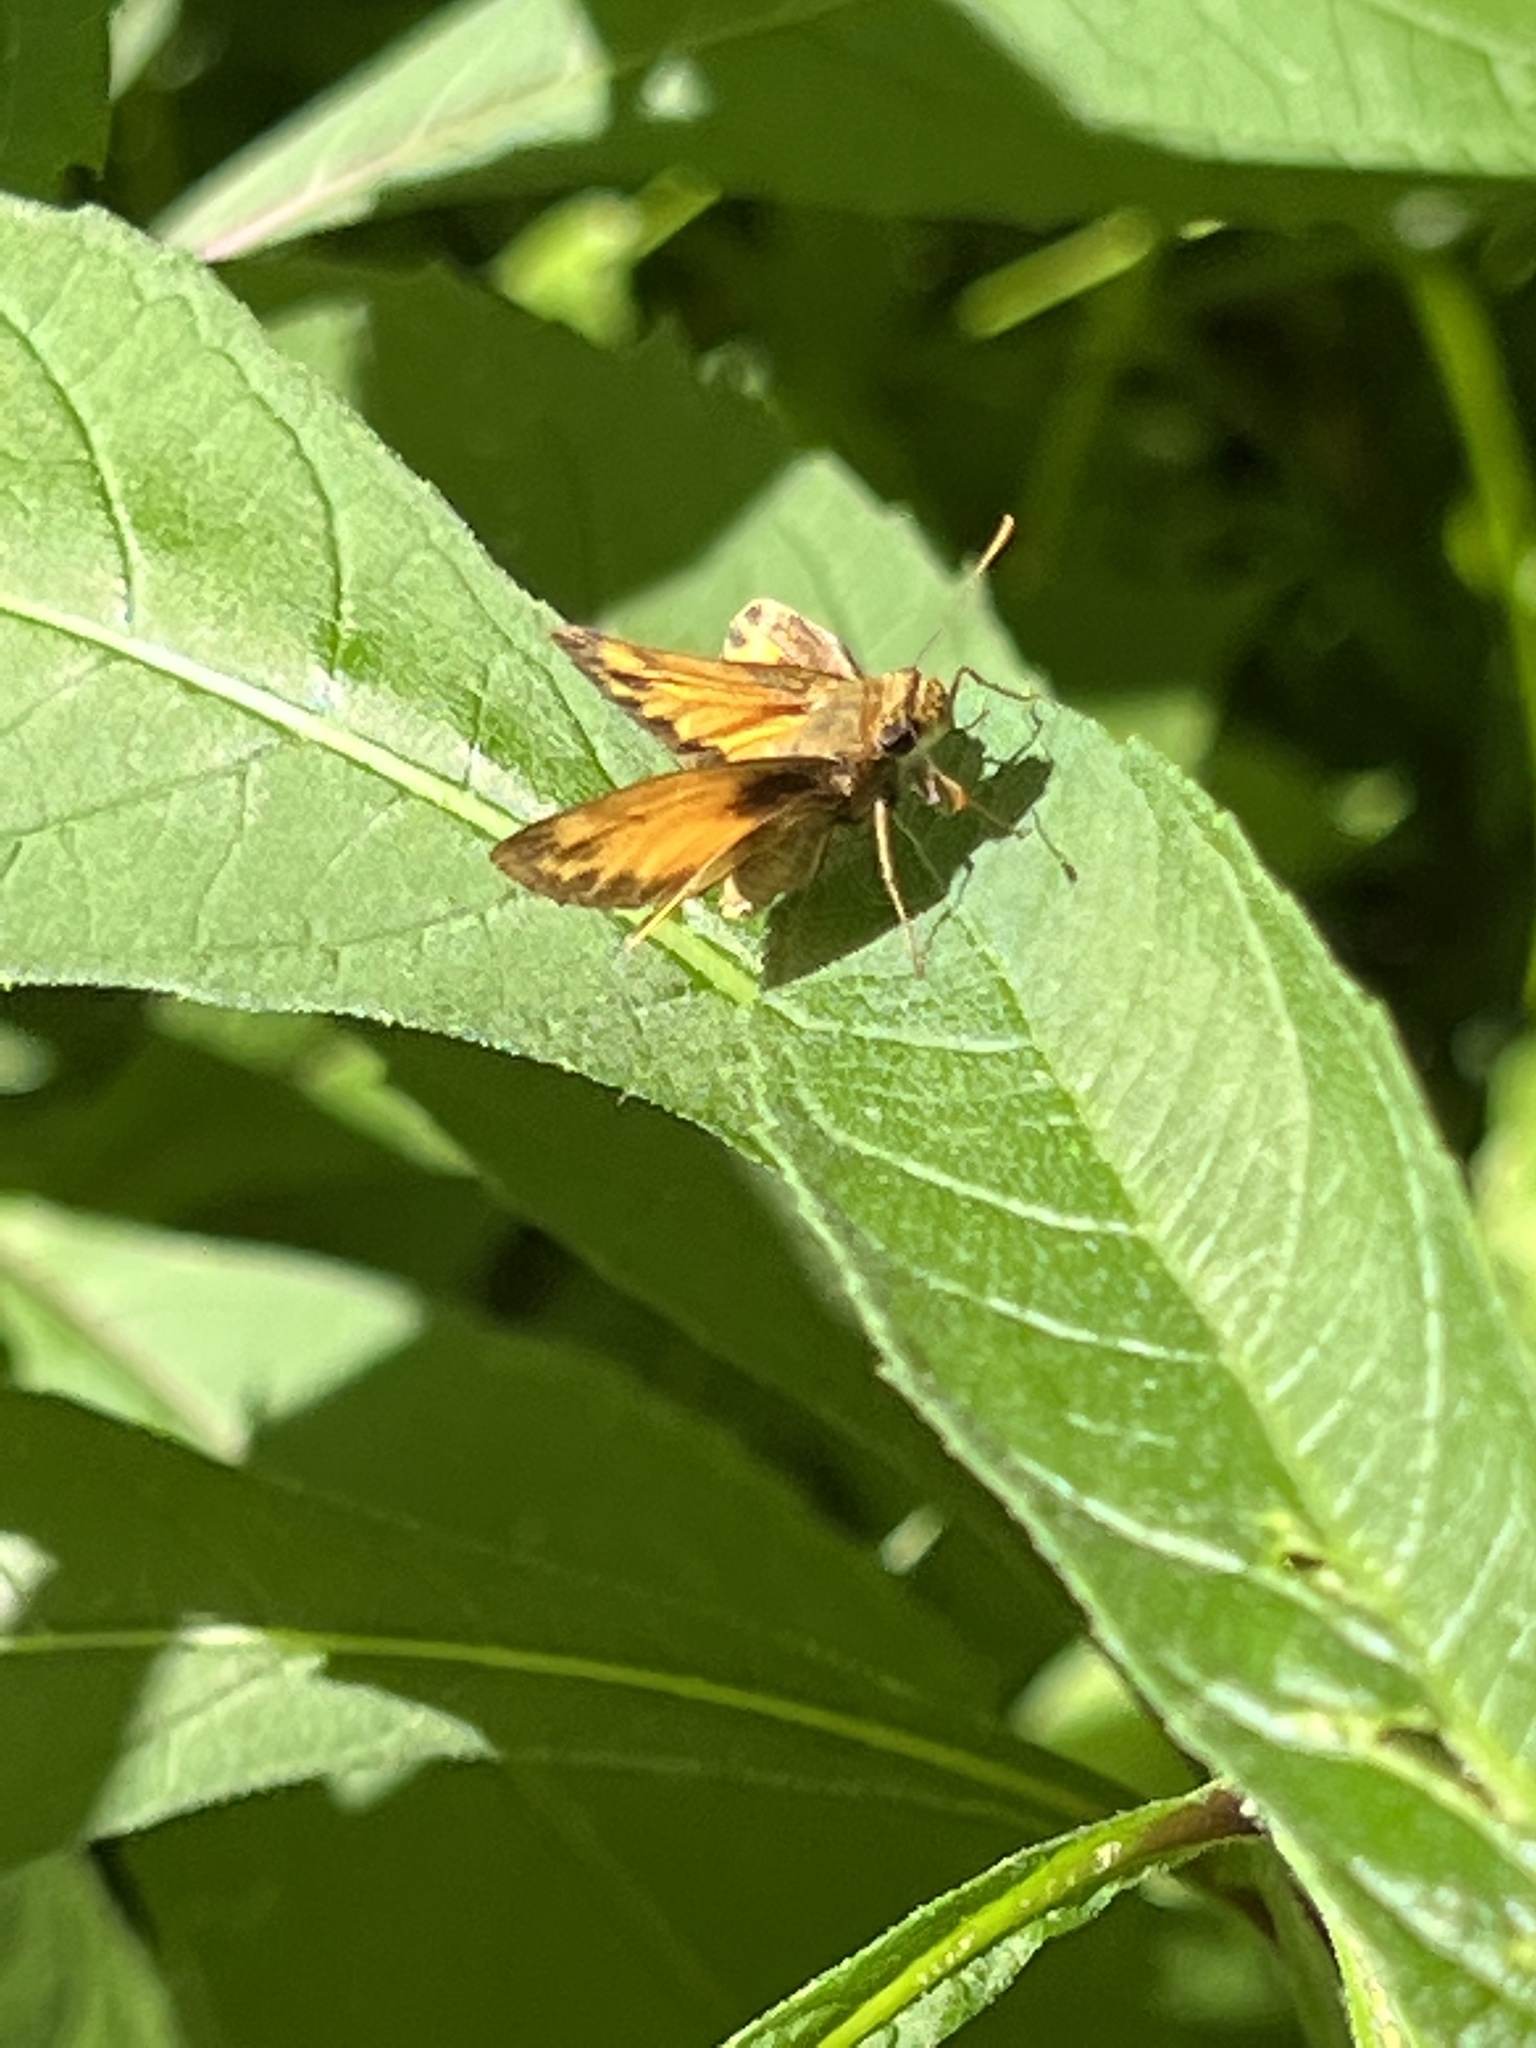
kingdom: Animalia
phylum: Arthropoda
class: Insecta
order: Lepidoptera
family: Hesperiidae
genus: Lon
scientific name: Lon zabulon
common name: Zabulon skipper
